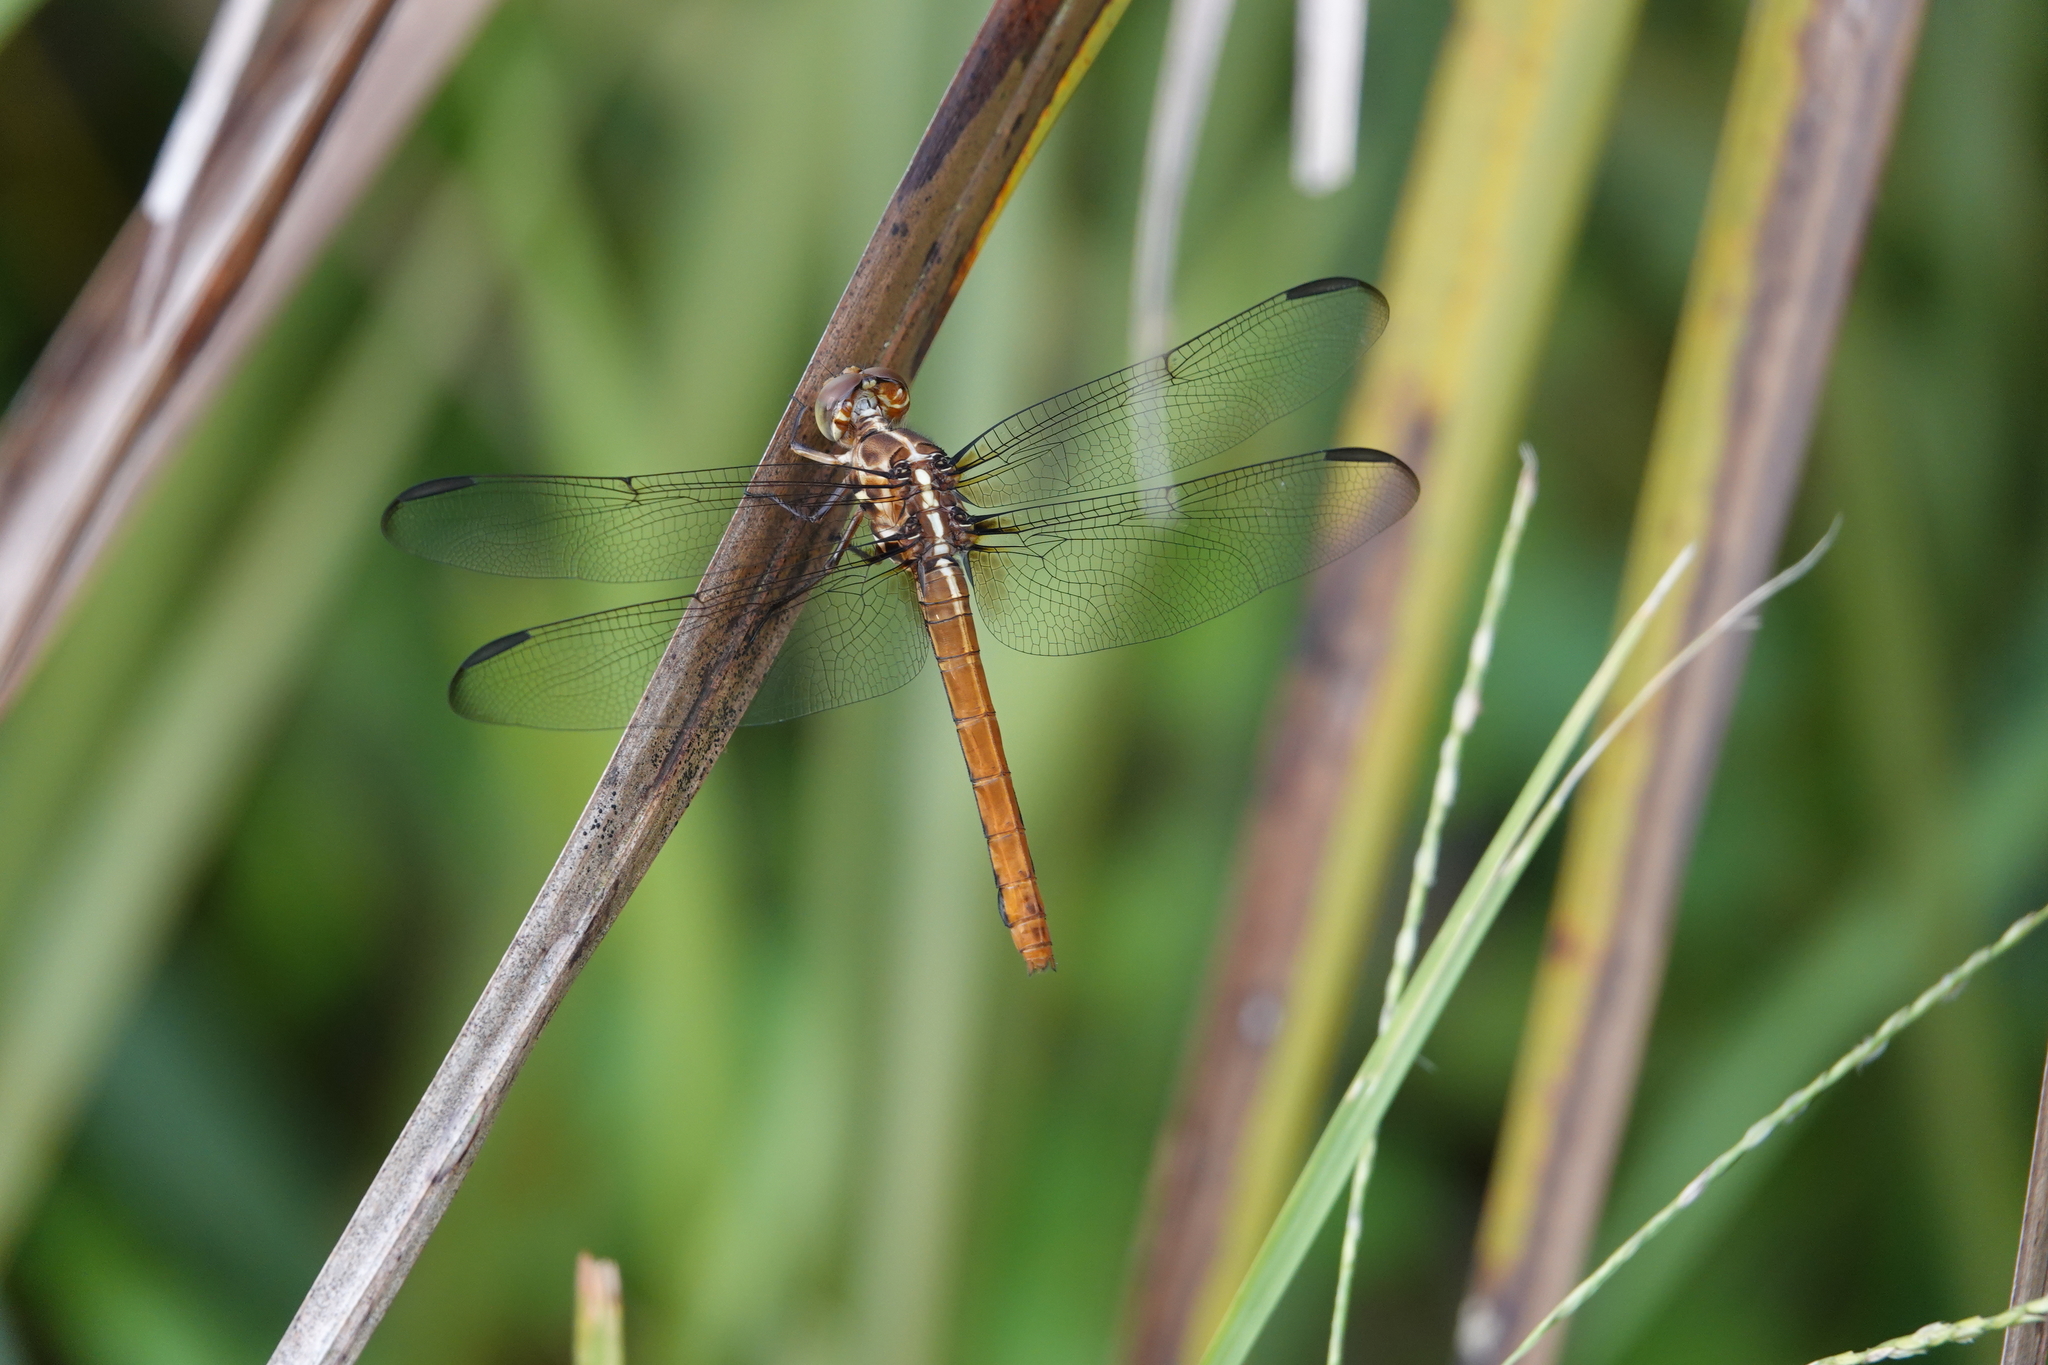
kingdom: Animalia
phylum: Arthropoda
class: Insecta
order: Odonata
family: Libellulidae
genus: Orthemis
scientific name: Orthemis ferruginea
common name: Roseate skimmer
